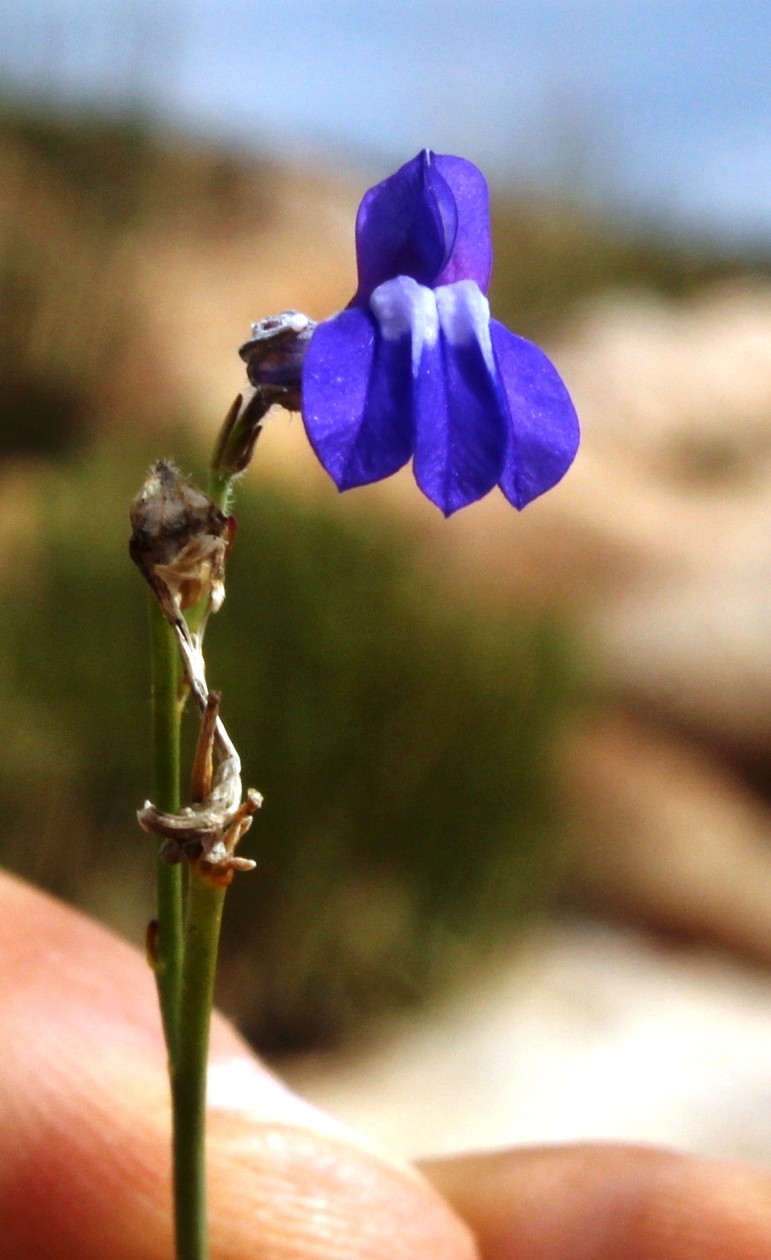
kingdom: Plantae
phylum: Tracheophyta
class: Magnoliopsida
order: Asterales
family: Campanulaceae
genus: Lobelia
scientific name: Lobelia linearis
